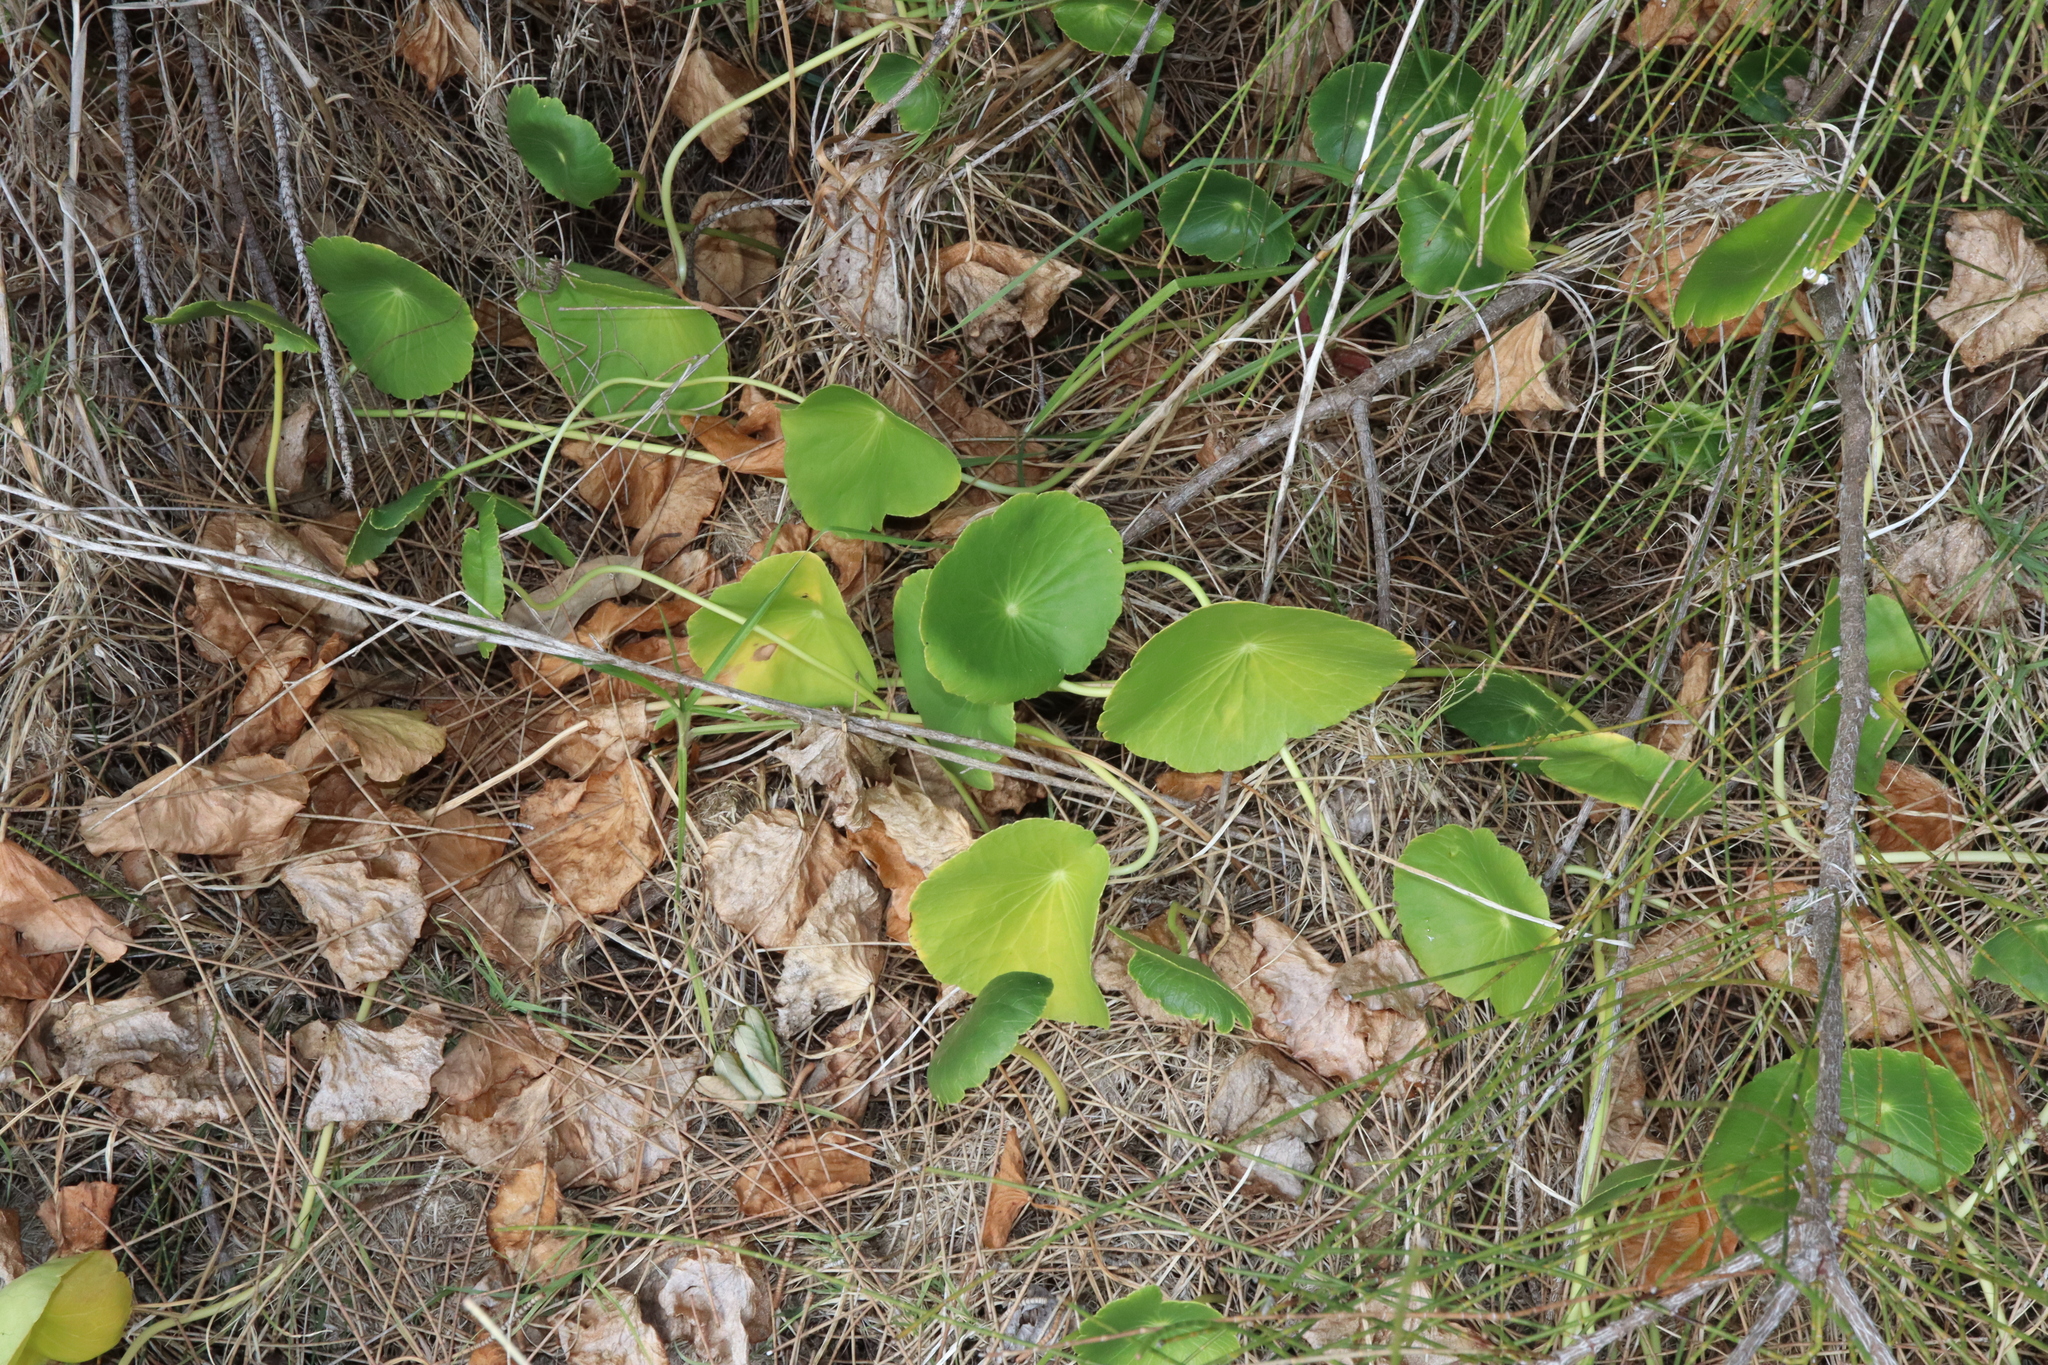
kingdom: Plantae
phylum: Tracheophyta
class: Magnoliopsida
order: Apiales
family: Araliaceae
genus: Hydrocotyle
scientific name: Hydrocotyle bonariensis
